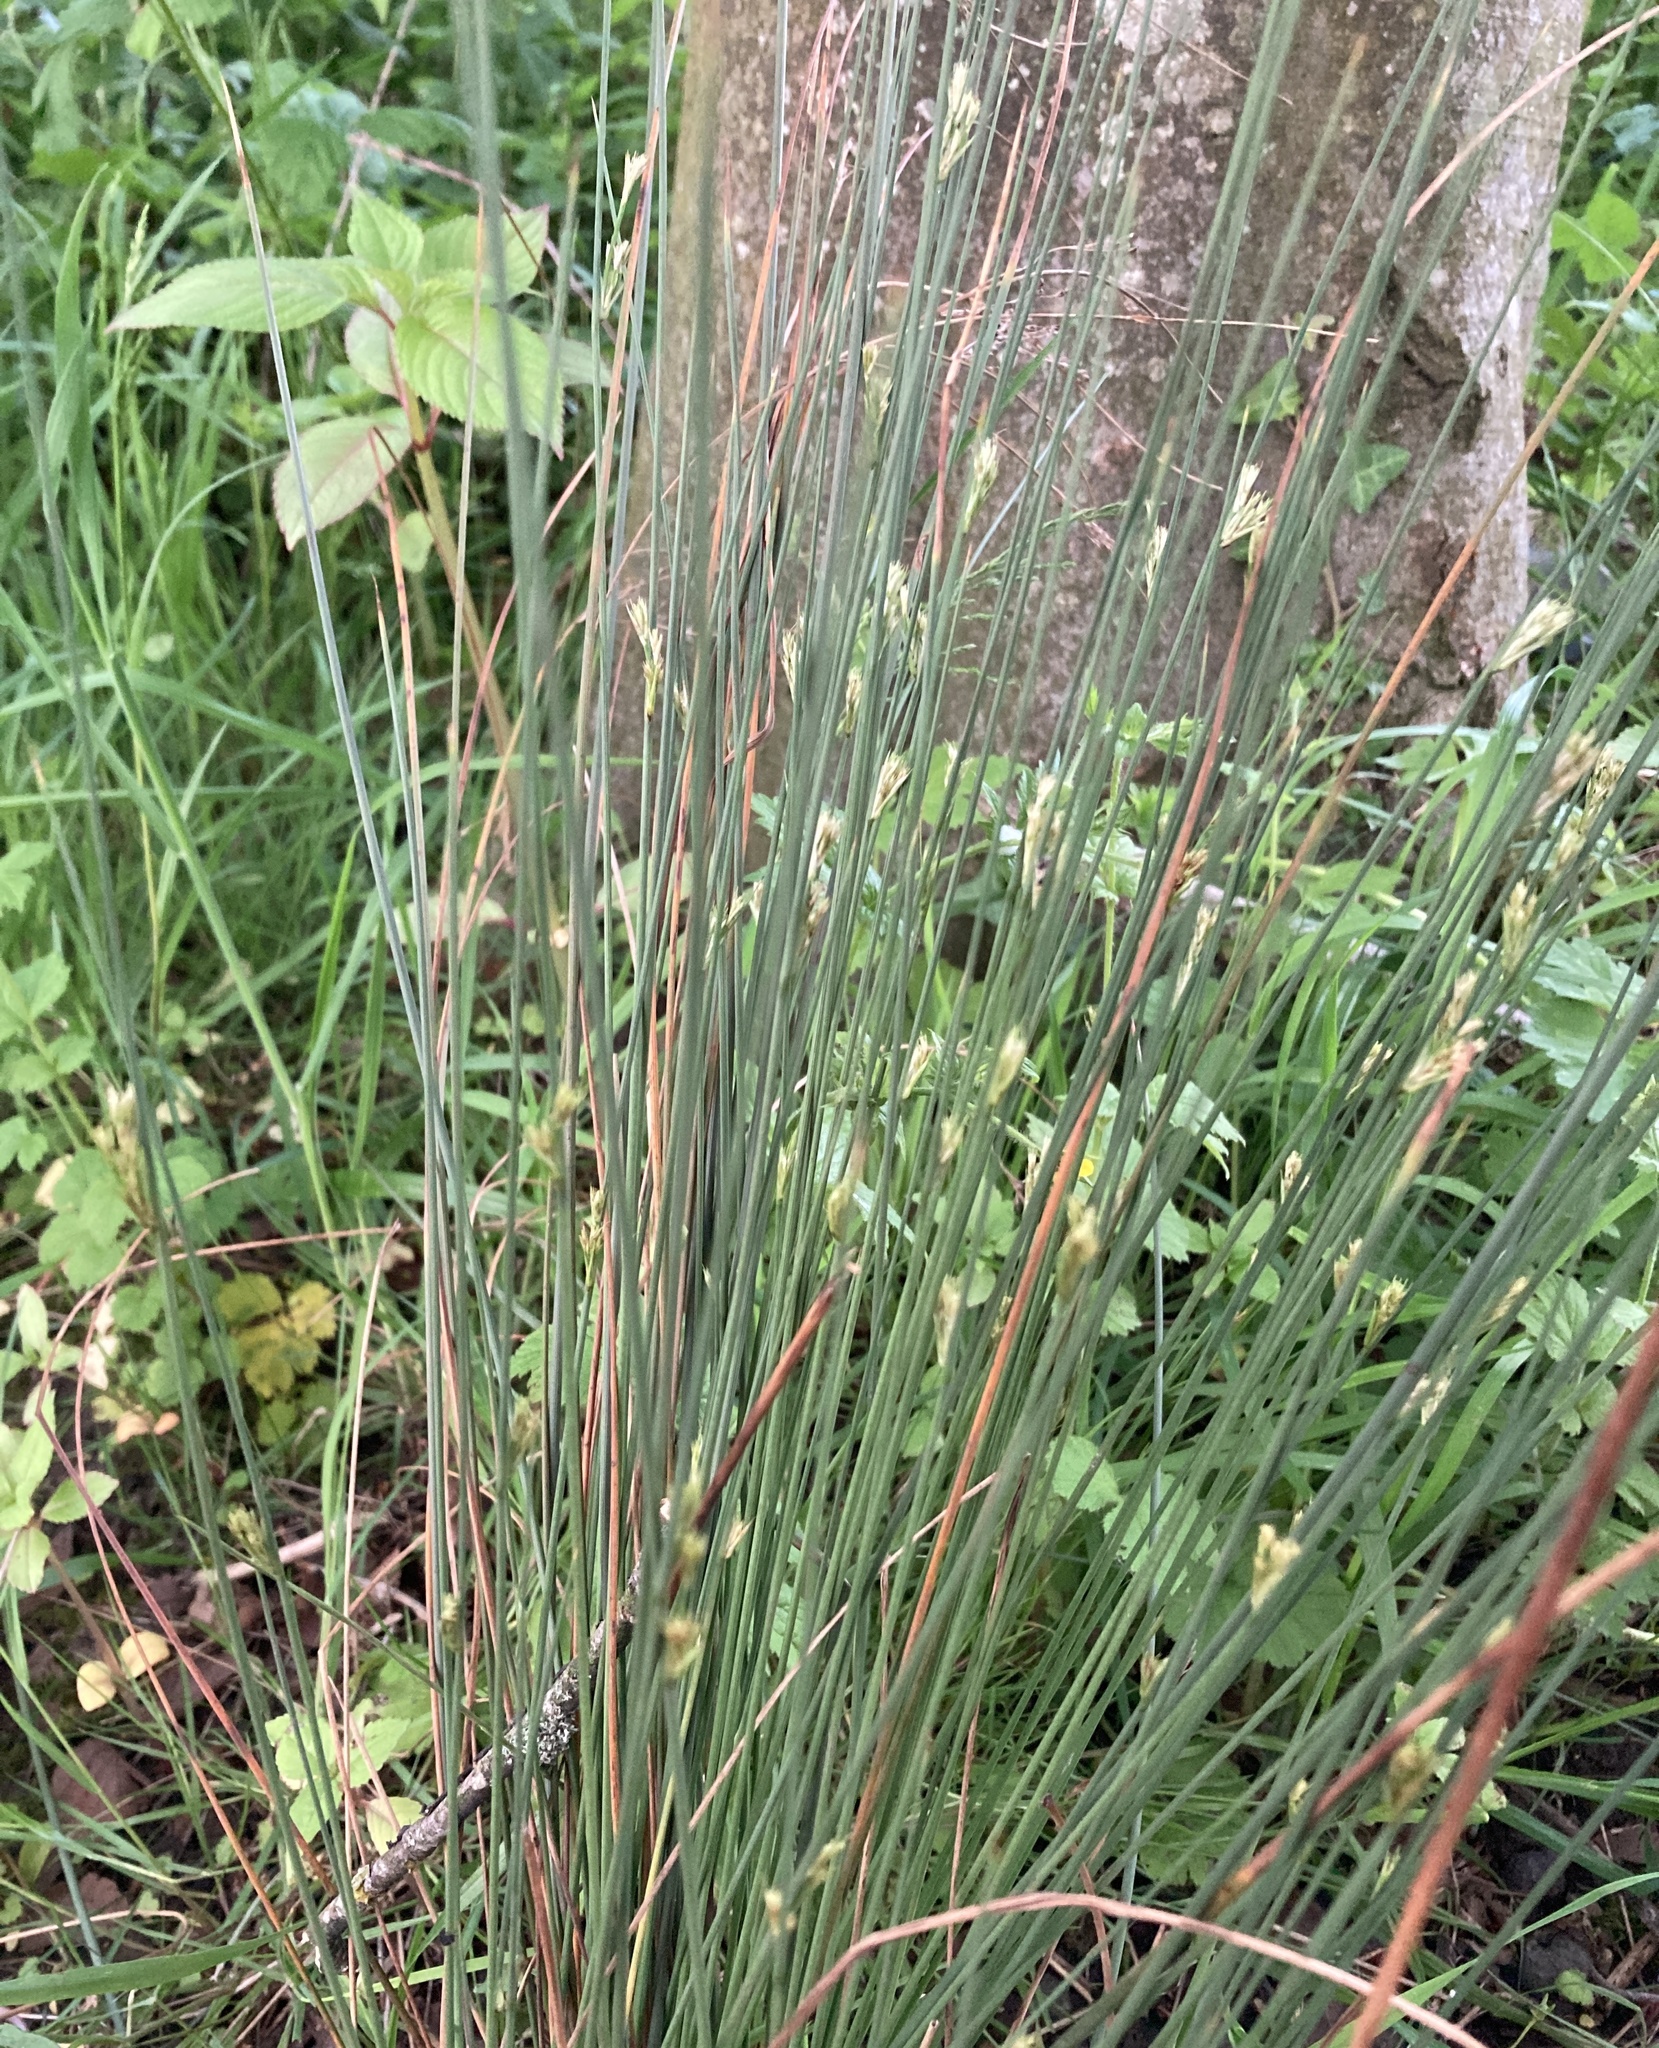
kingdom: Plantae
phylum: Tracheophyta
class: Liliopsida
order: Poales
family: Juncaceae
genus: Juncus
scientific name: Juncus inflexus
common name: Hard rush
